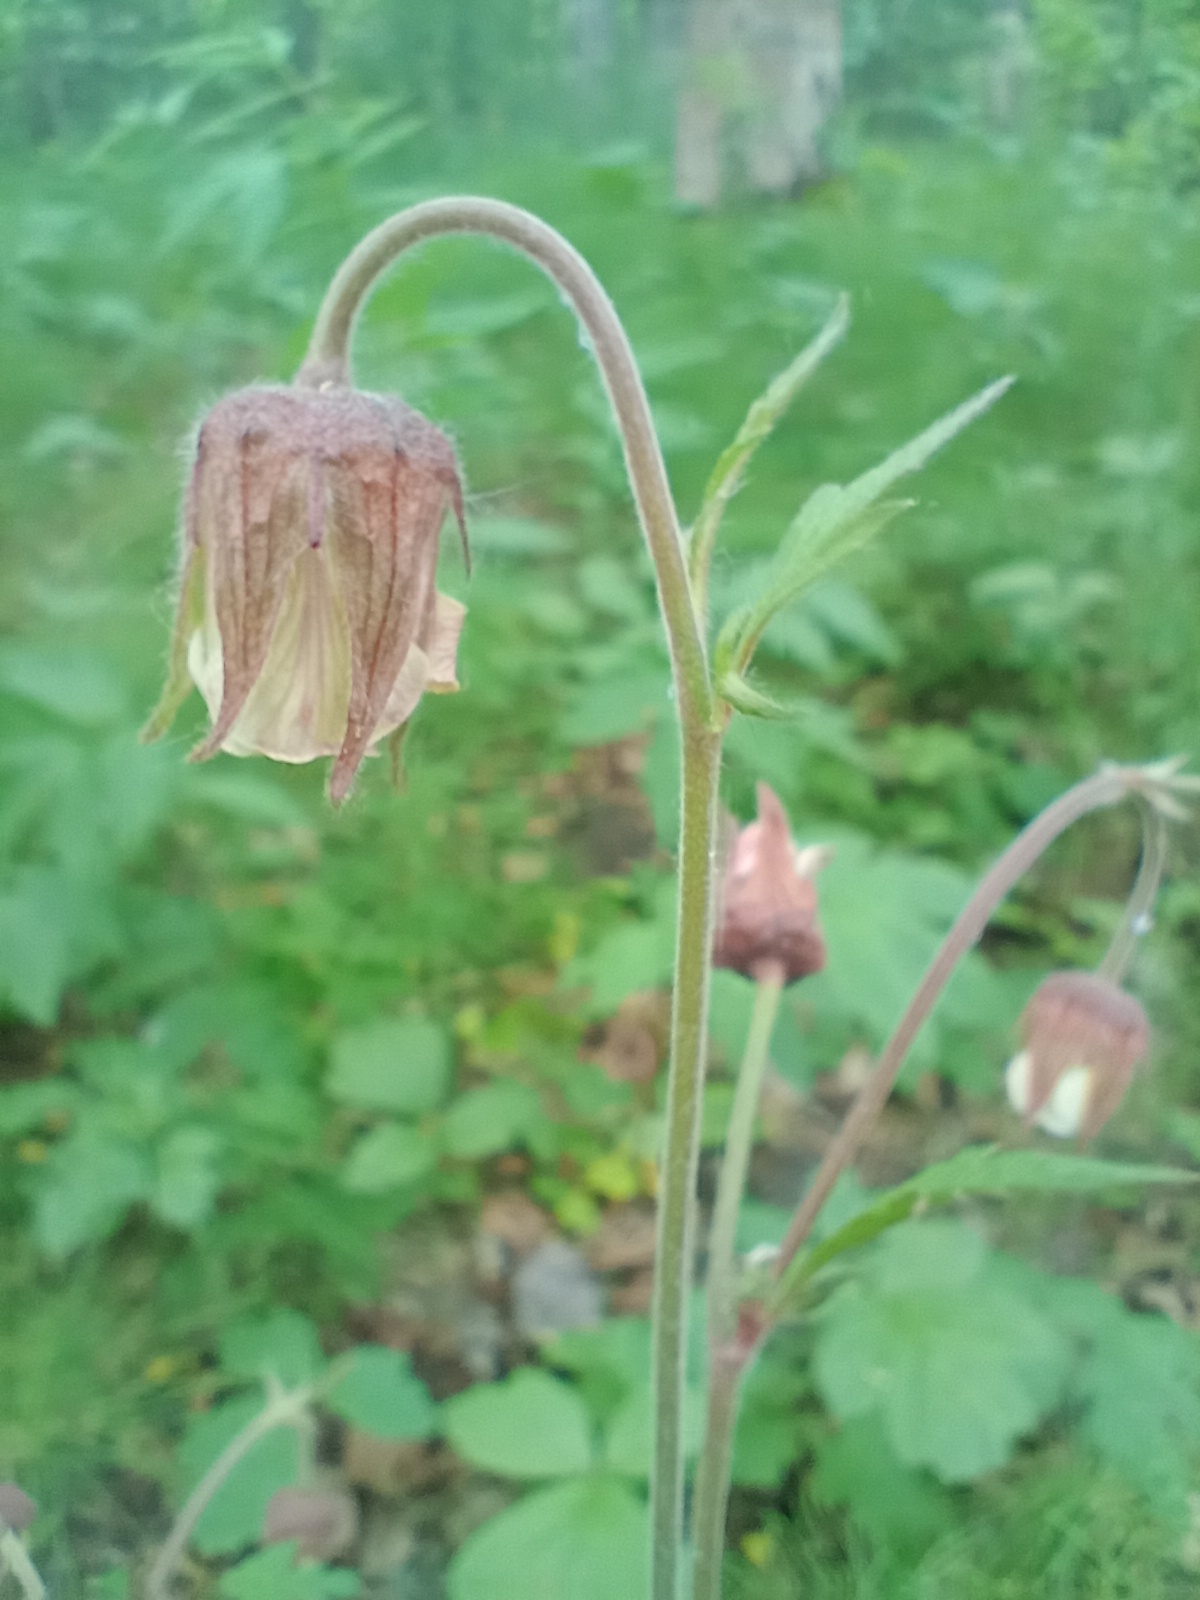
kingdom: Plantae
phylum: Tracheophyta
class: Magnoliopsida
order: Rosales
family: Rosaceae
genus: Geum
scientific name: Geum rivale
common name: Water avens
